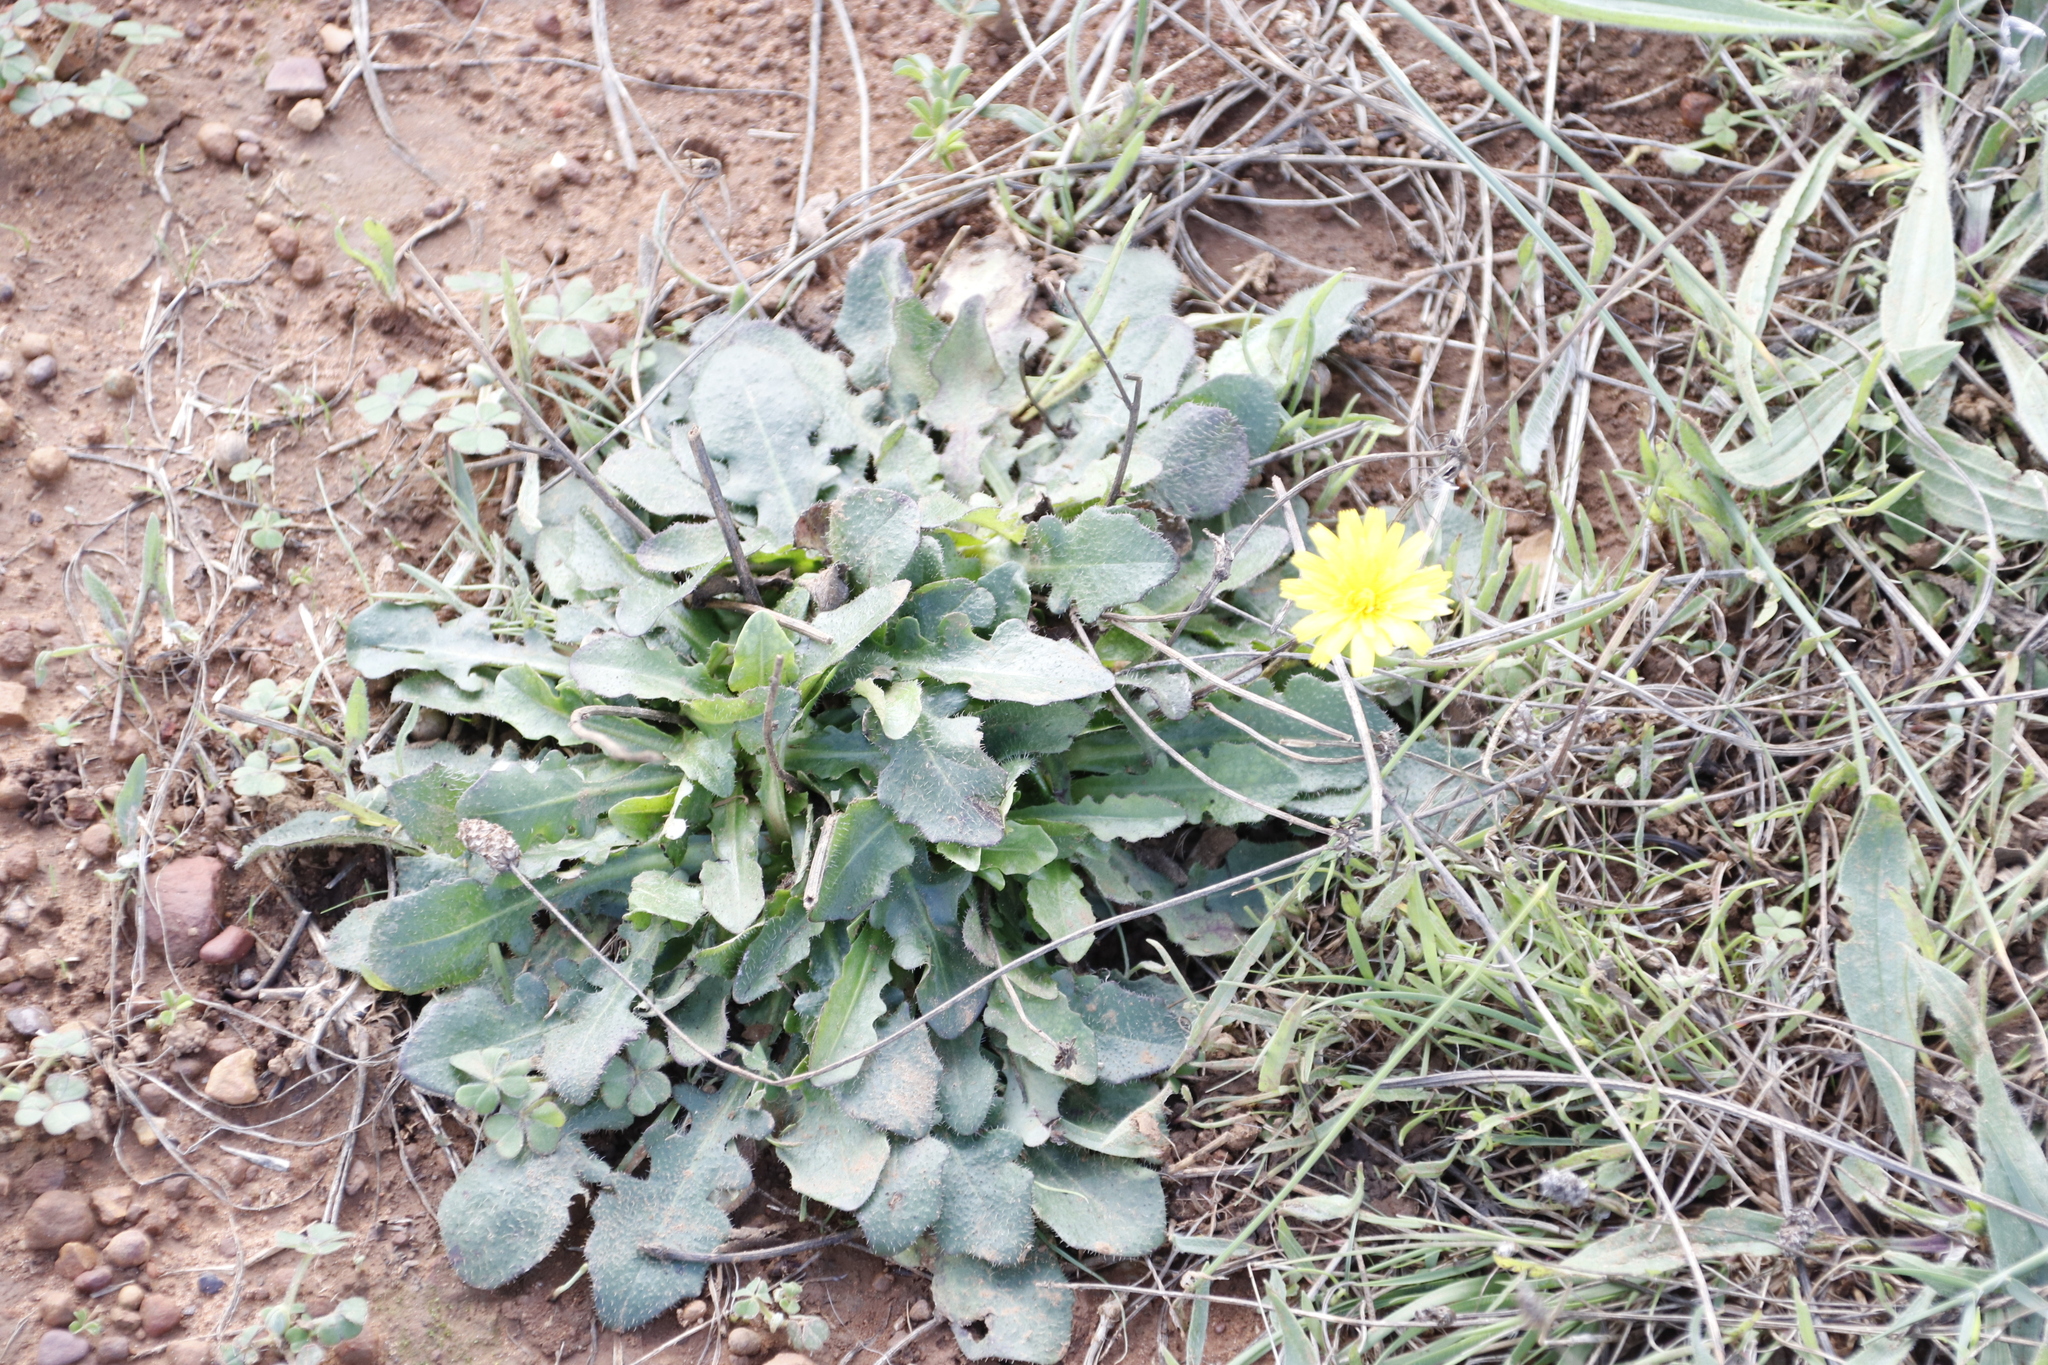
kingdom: Plantae
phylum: Tracheophyta
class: Magnoliopsida
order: Asterales
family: Asteraceae
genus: Hypochaeris
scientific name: Hypochaeris radicata
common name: Flatweed
